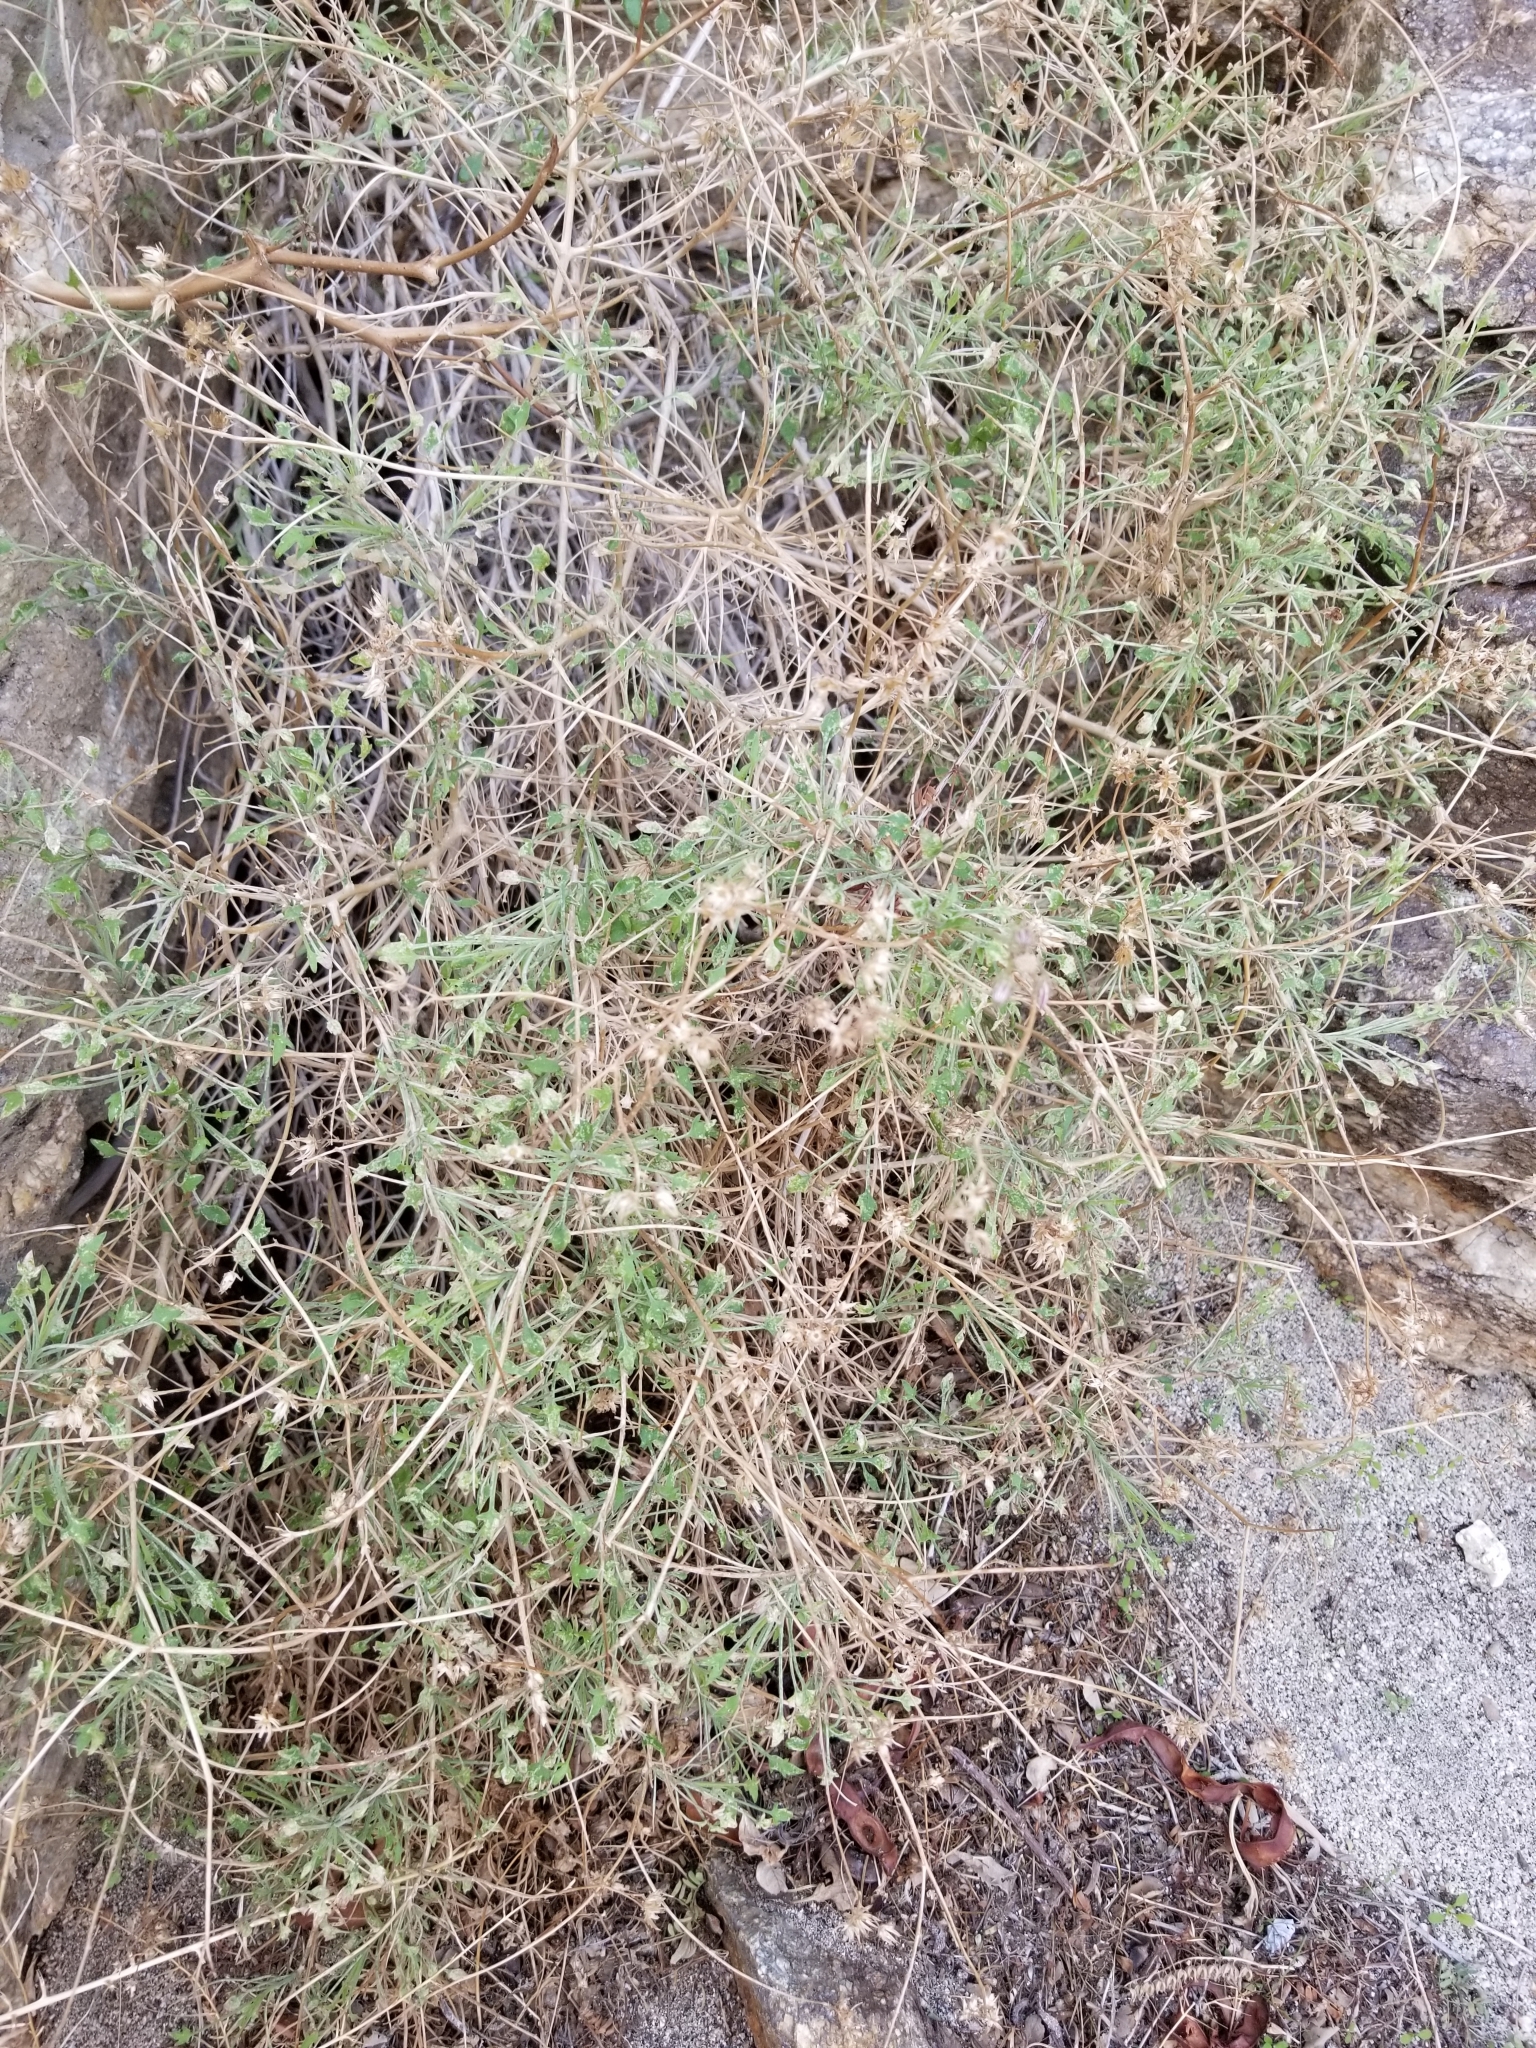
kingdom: Plantae
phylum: Tracheophyta
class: Magnoliopsida
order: Asterales
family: Asteraceae
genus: Pleurocoronis
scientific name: Pleurocoronis pluriseta
